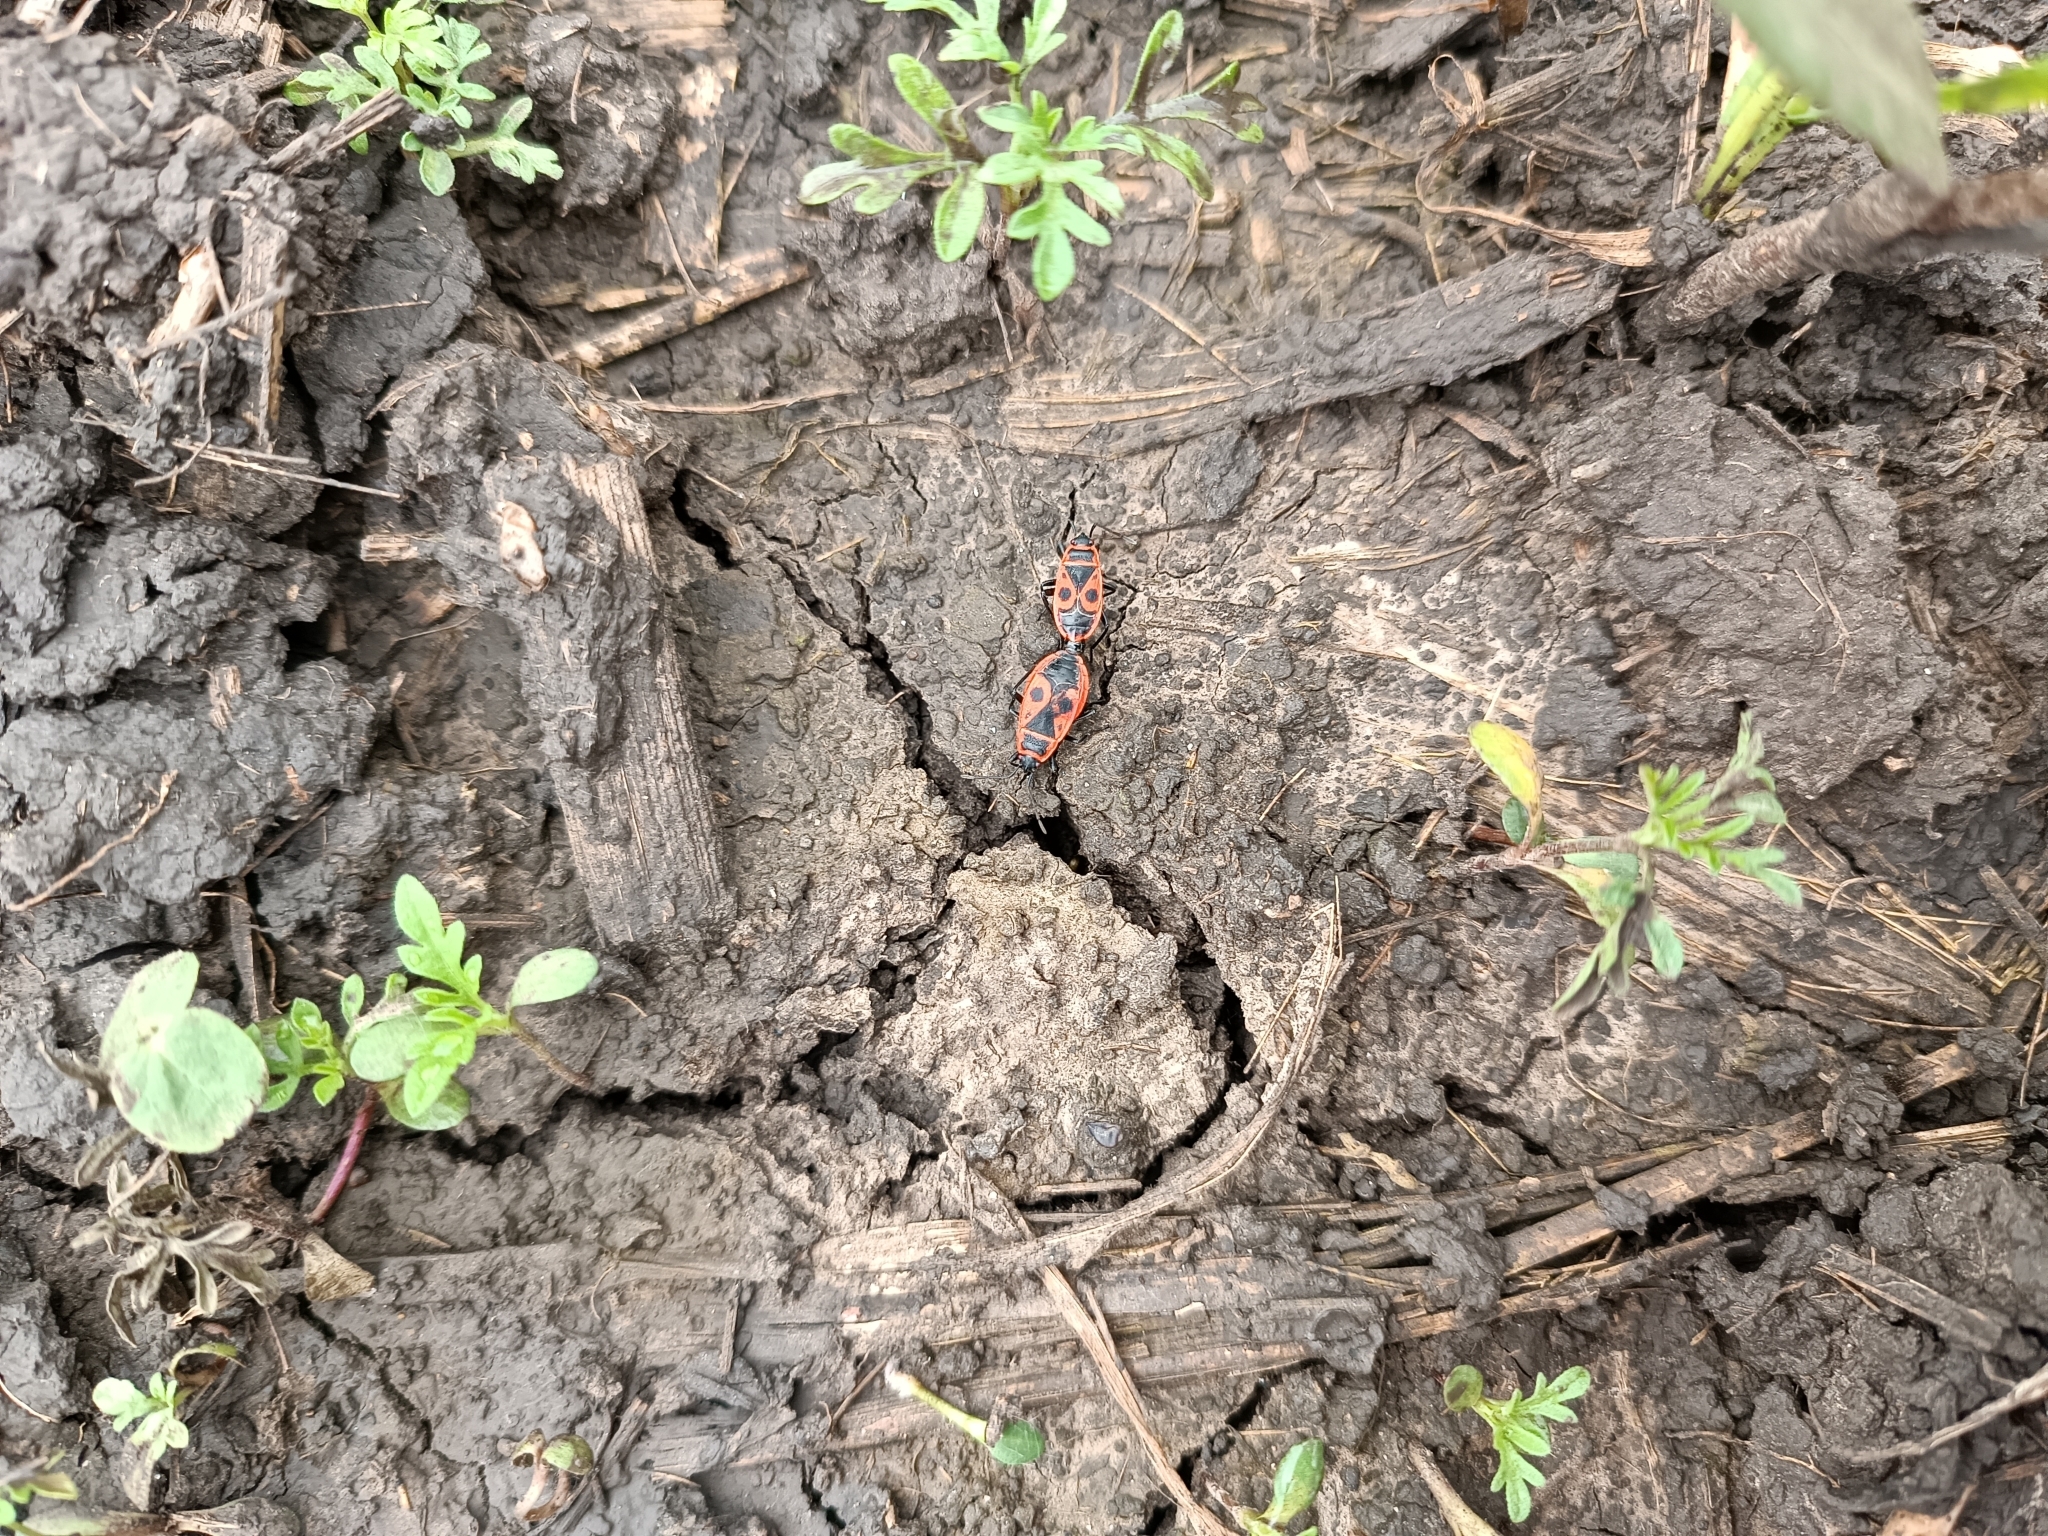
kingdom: Animalia
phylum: Arthropoda
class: Insecta
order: Hemiptera
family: Pyrrhocoridae
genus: Pyrrhocoris
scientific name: Pyrrhocoris apterus
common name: Firebug
